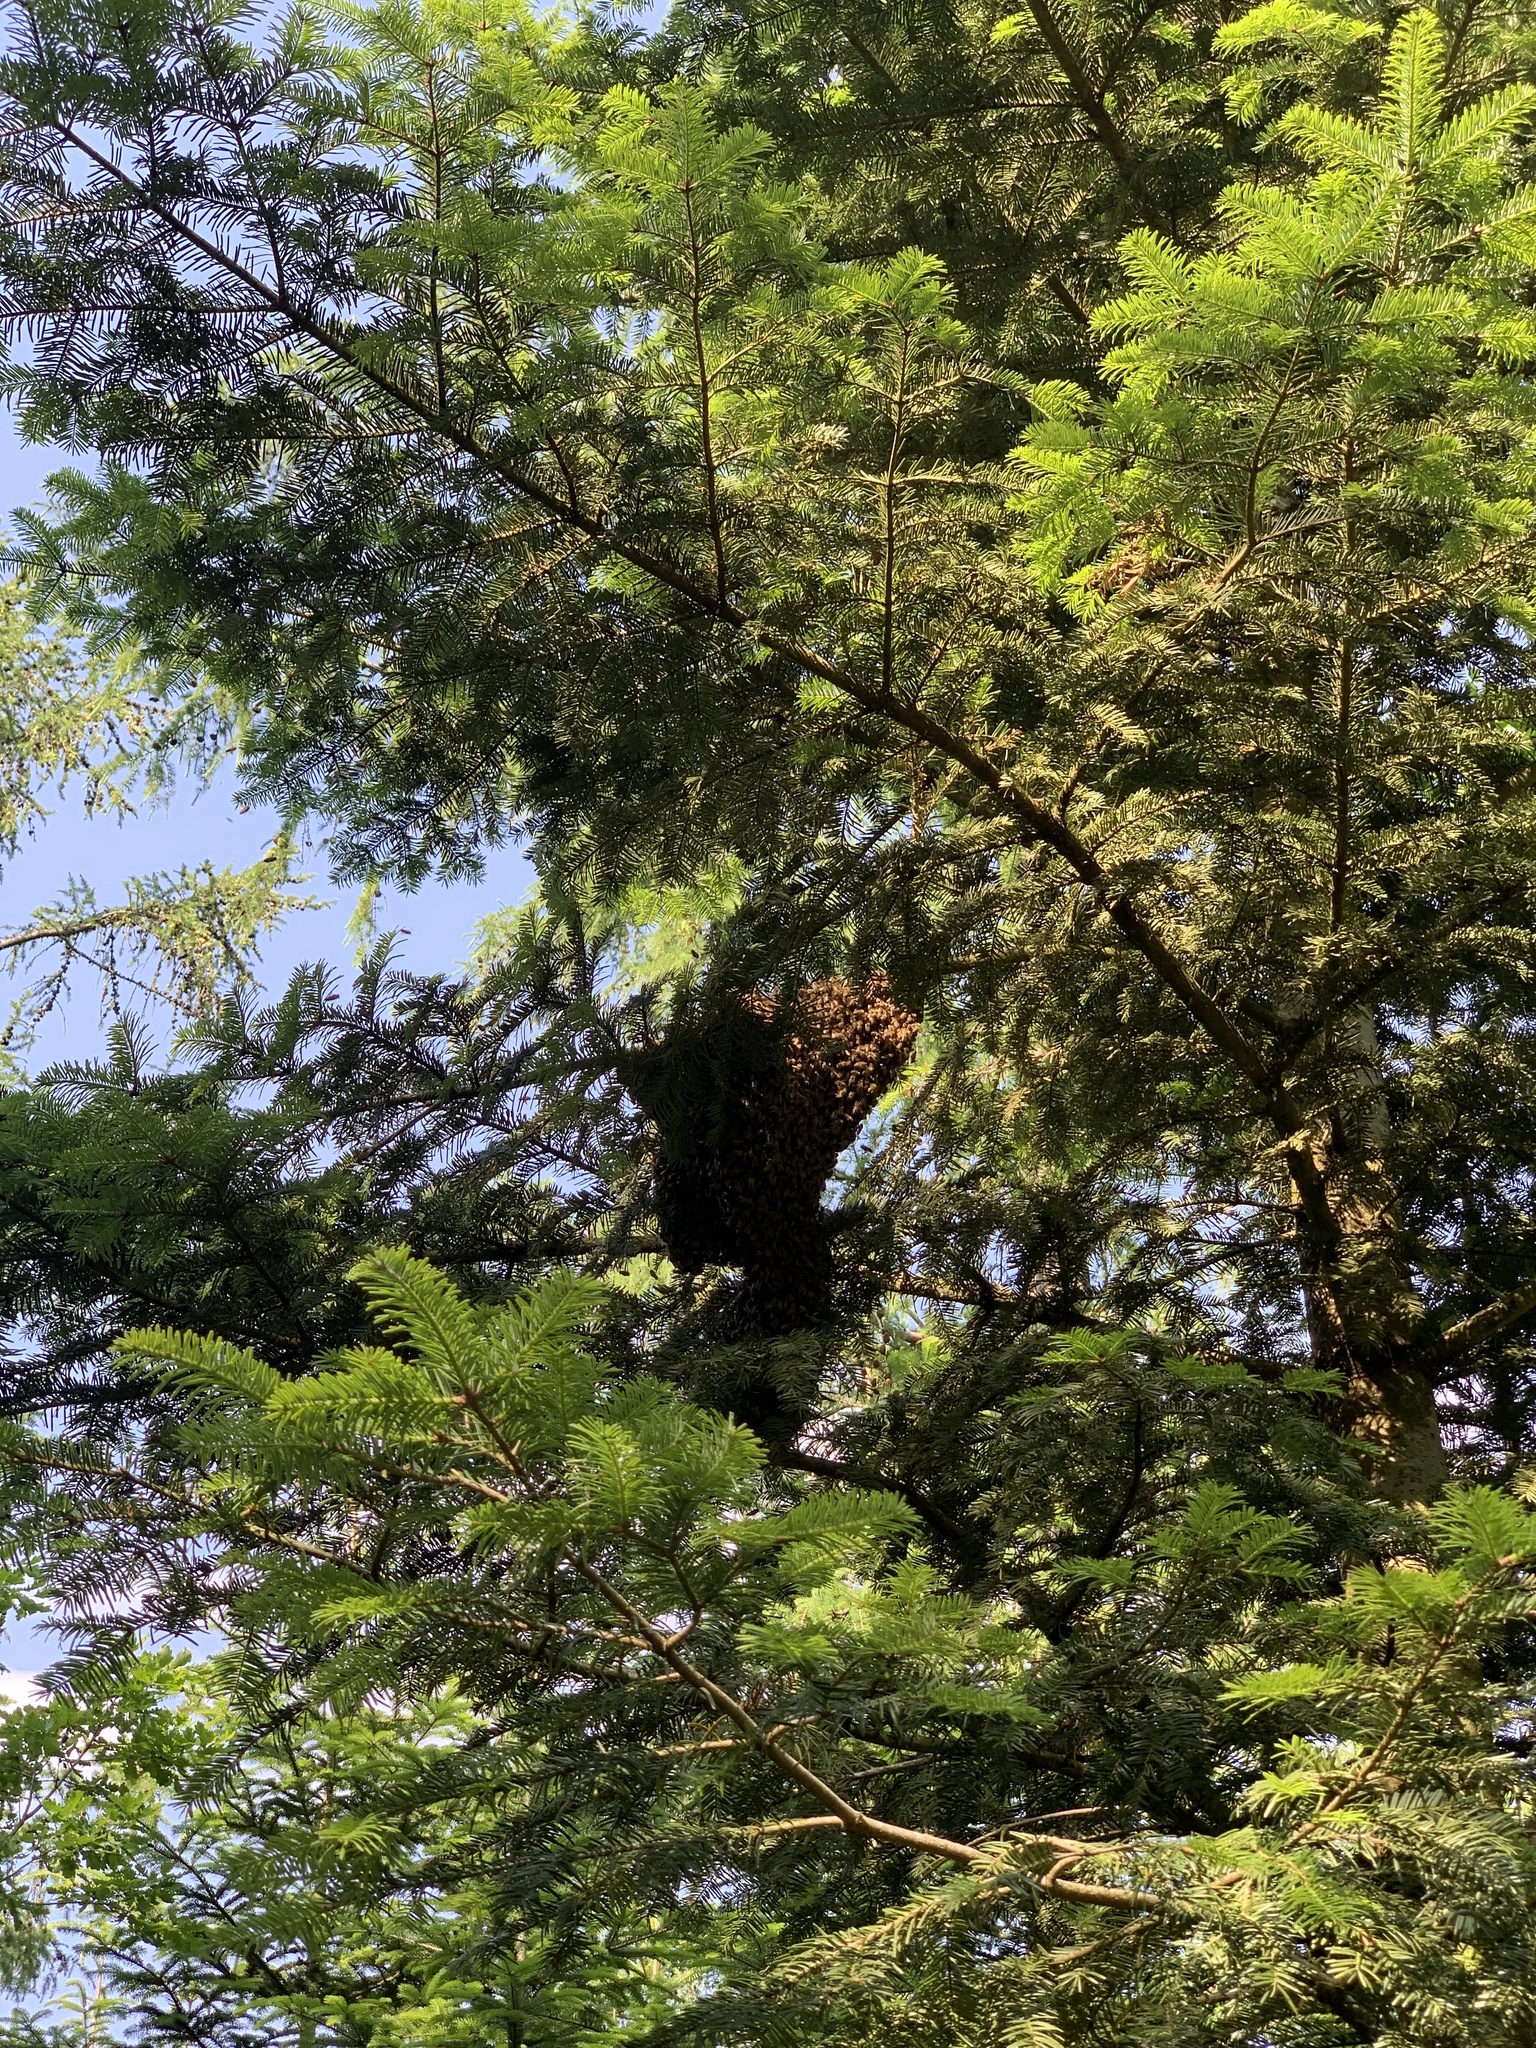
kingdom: Animalia
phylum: Arthropoda
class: Insecta
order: Hymenoptera
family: Apidae
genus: Apis
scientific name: Apis mellifera
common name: Honey bee
